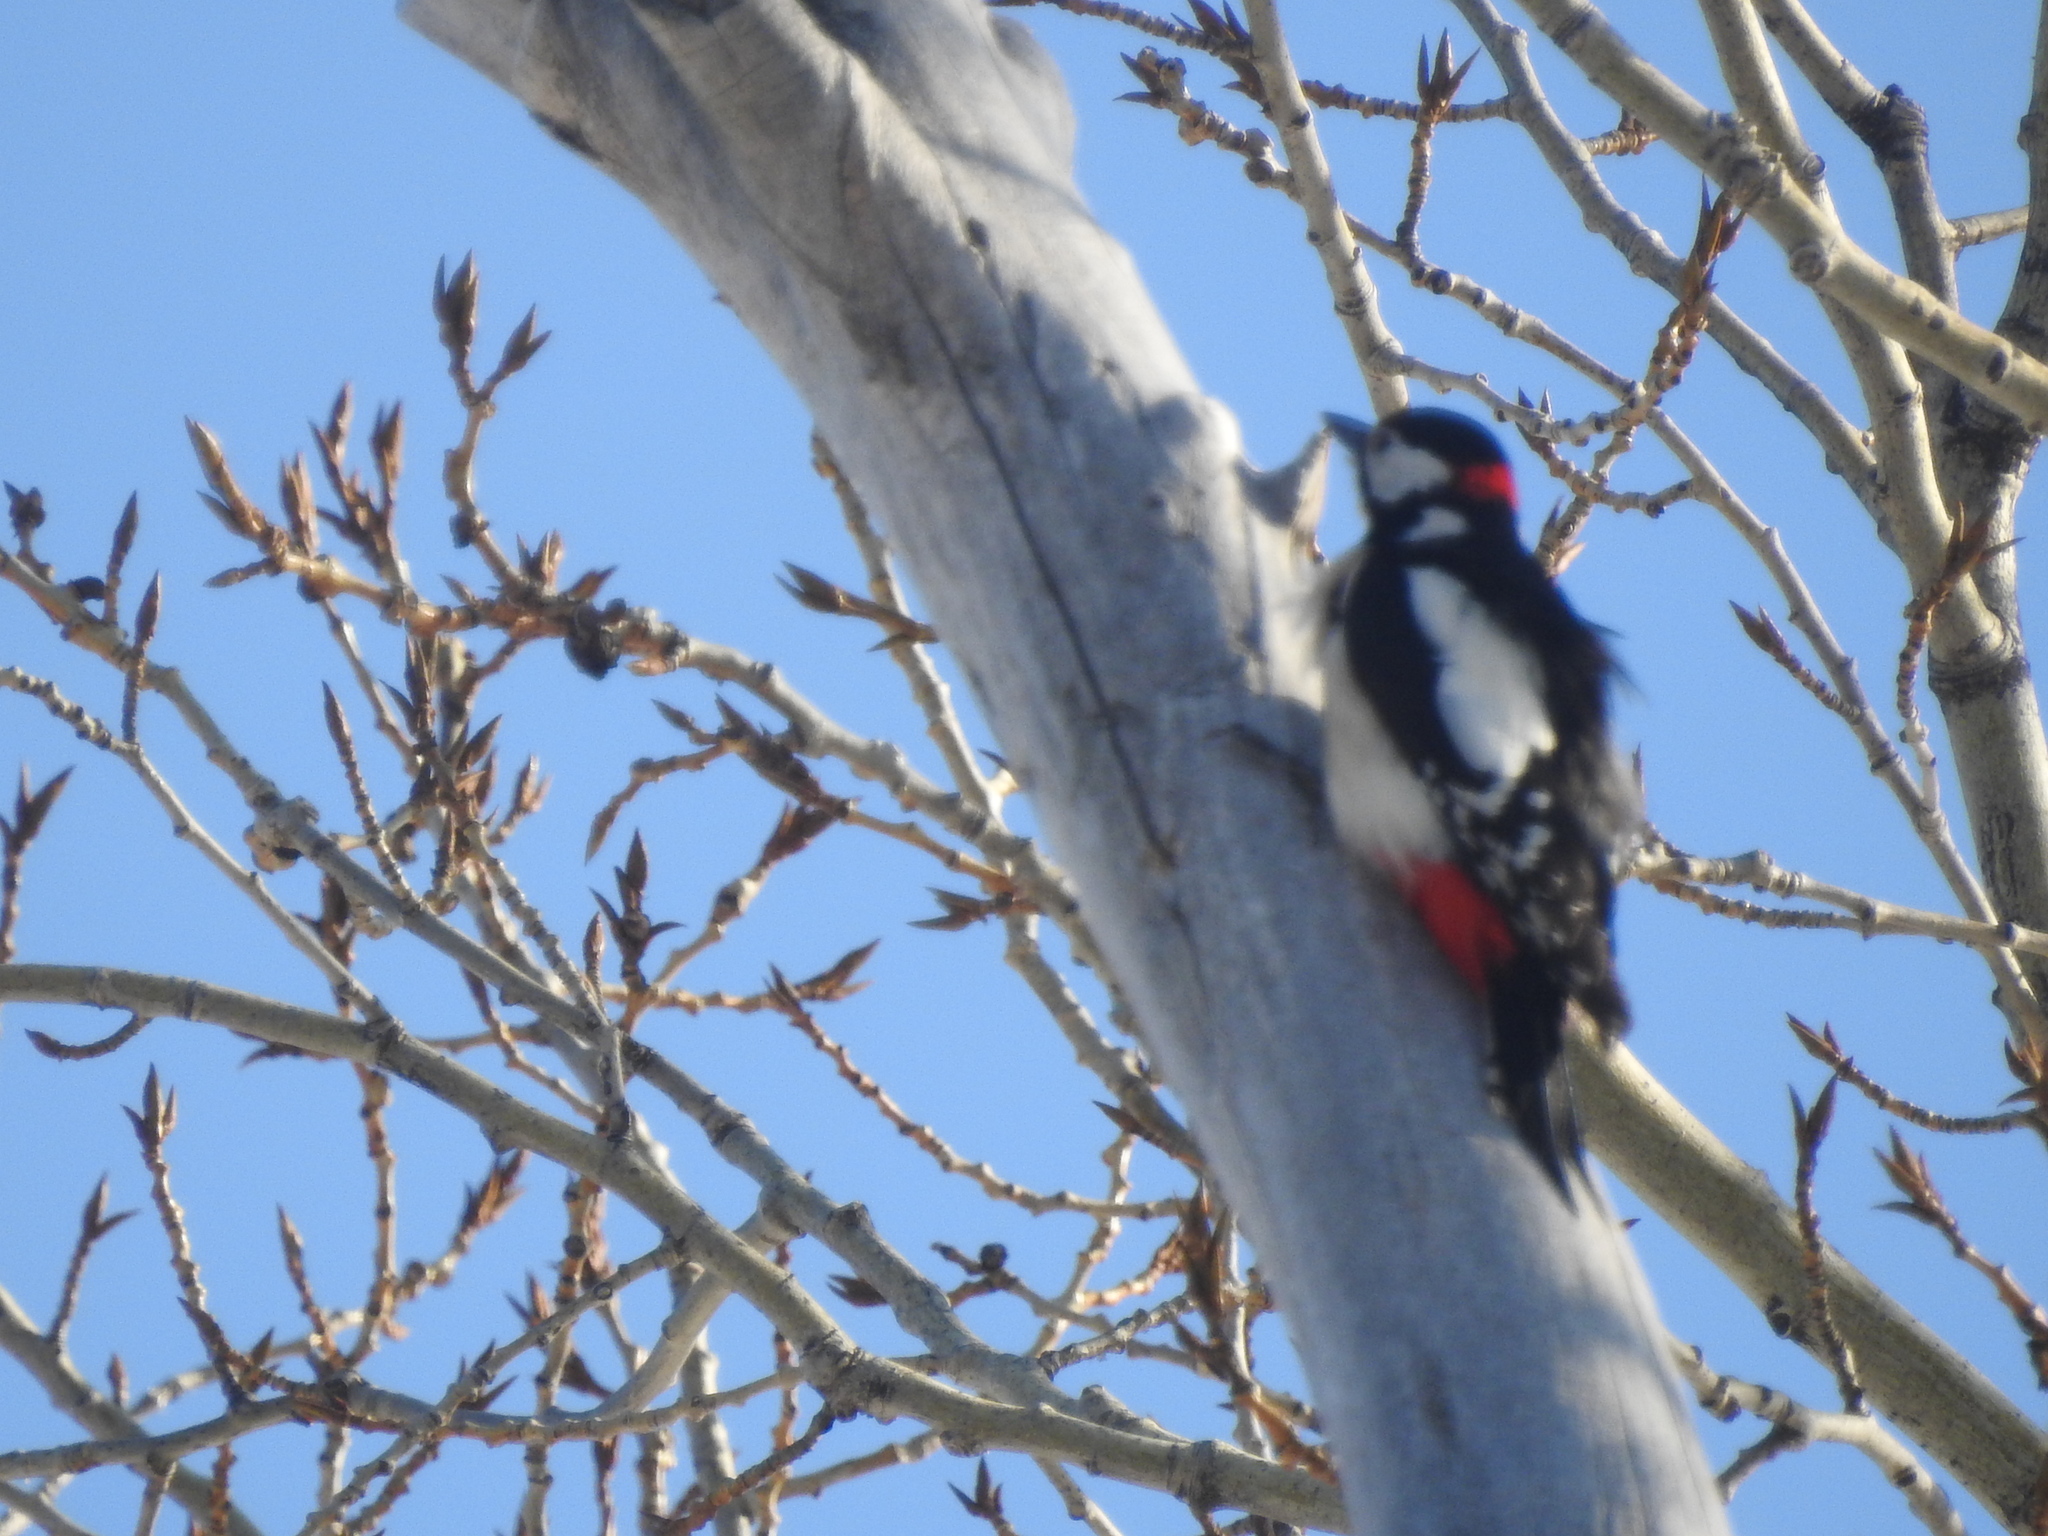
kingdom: Animalia
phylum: Chordata
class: Aves
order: Piciformes
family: Picidae
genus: Dendrocopos
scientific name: Dendrocopos major
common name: Great spotted woodpecker
